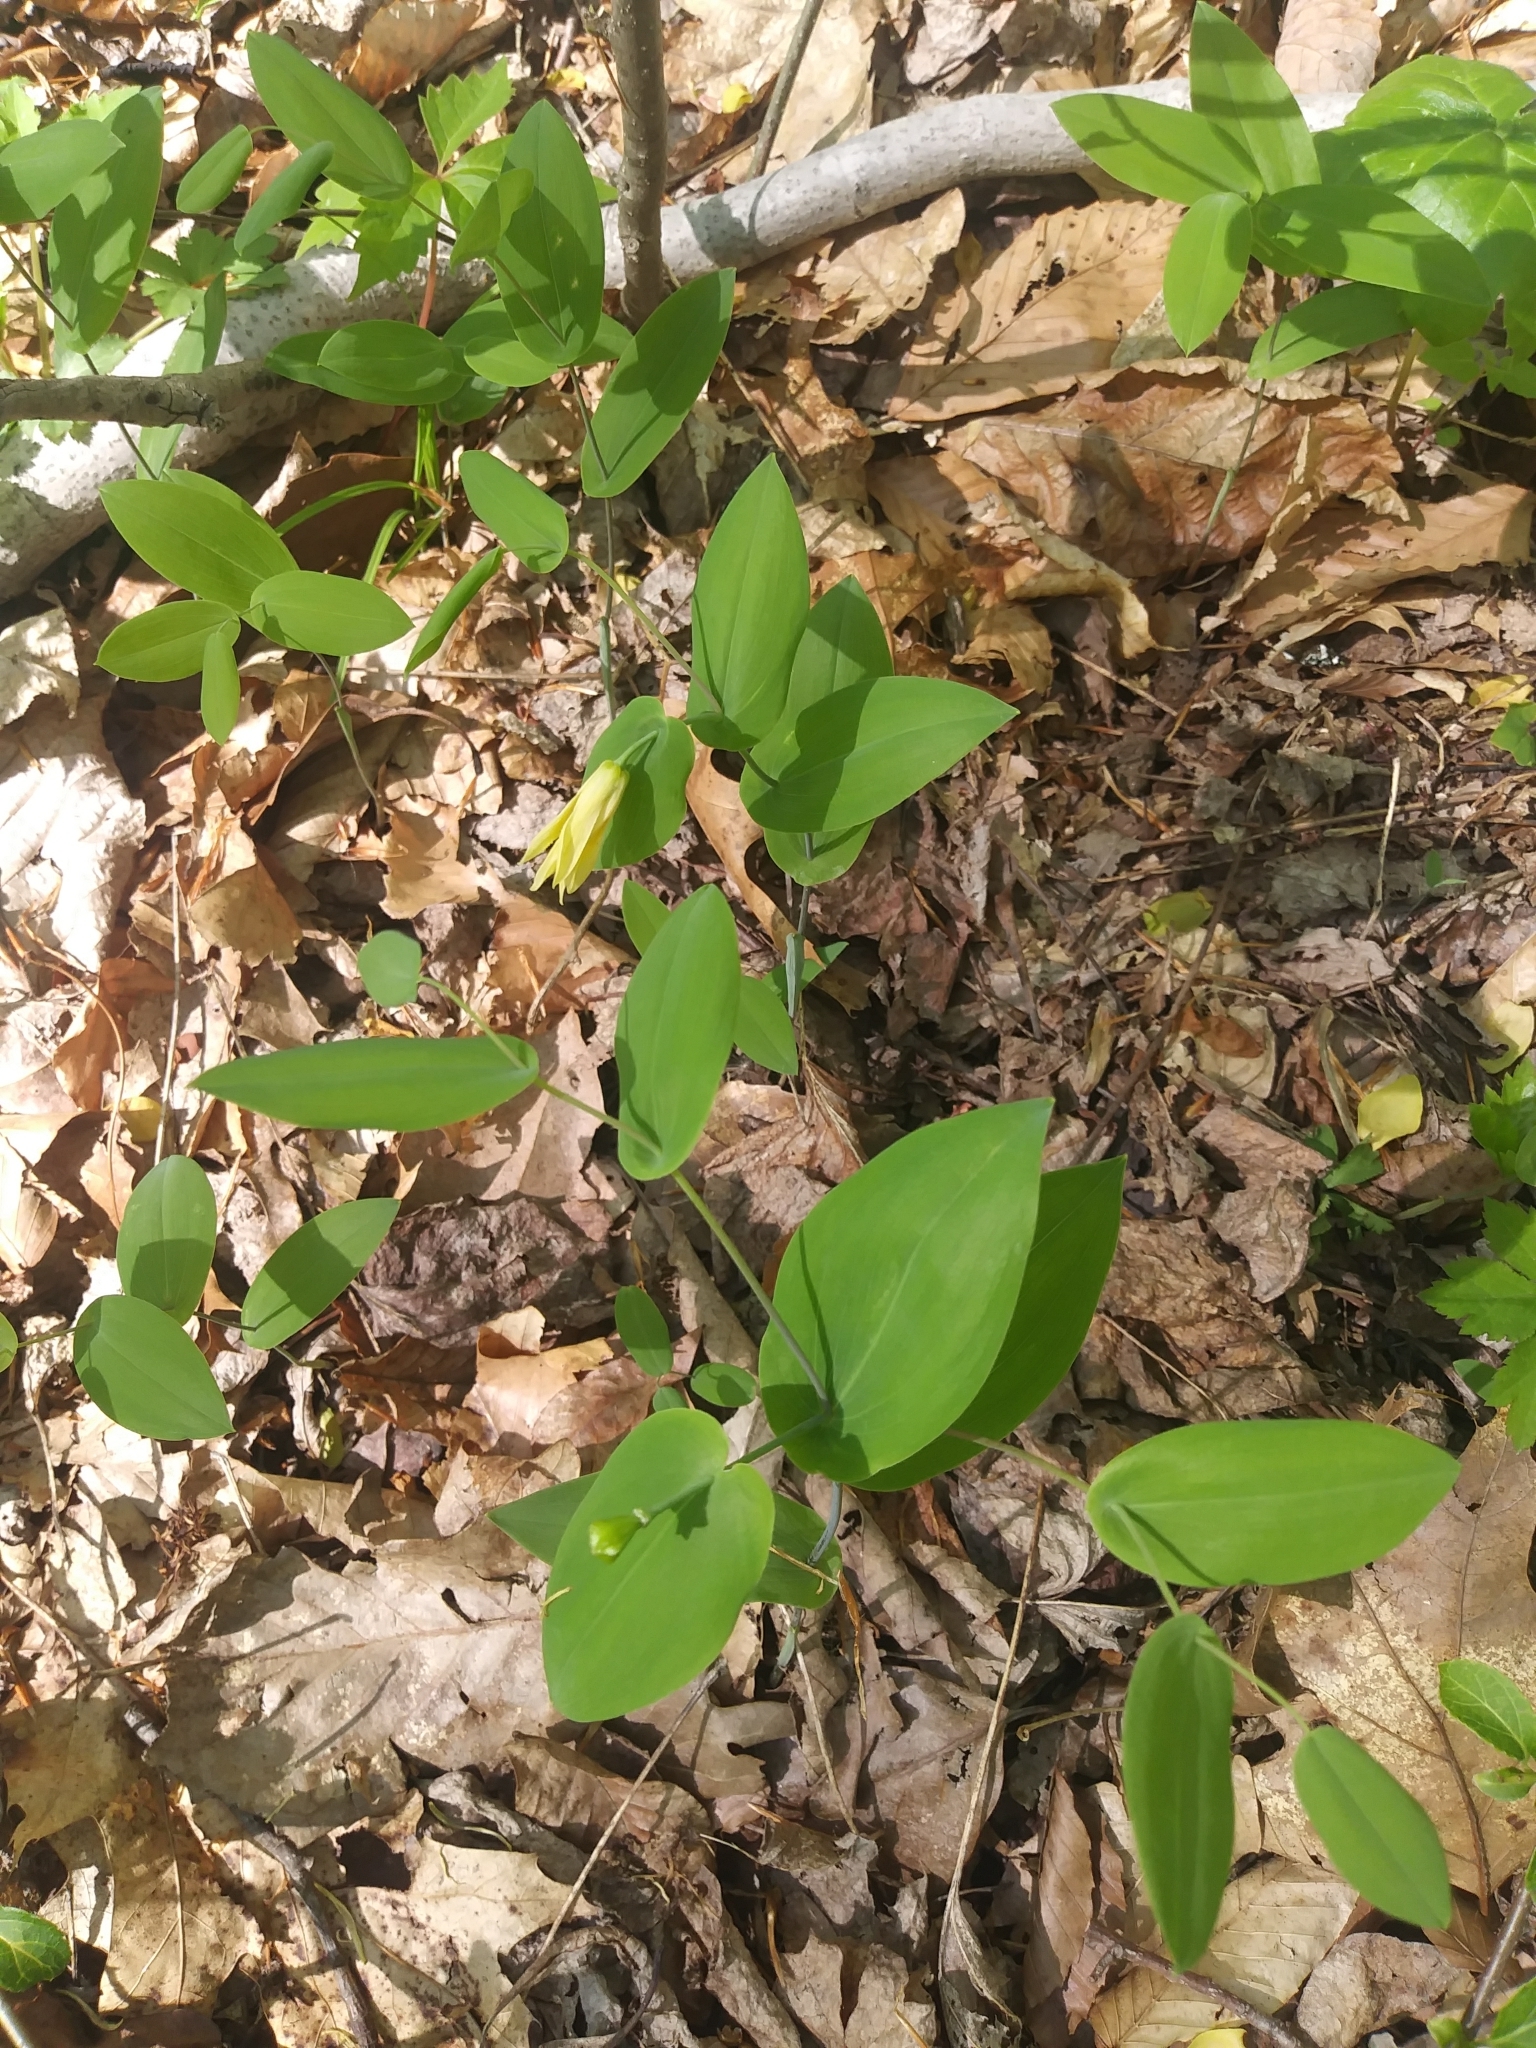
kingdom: Plantae
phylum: Tracheophyta
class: Liliopsida
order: Liliales
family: Colchicaceae
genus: Uvularia
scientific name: Uvularia perfoliata
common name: Perfoliate bellwort
